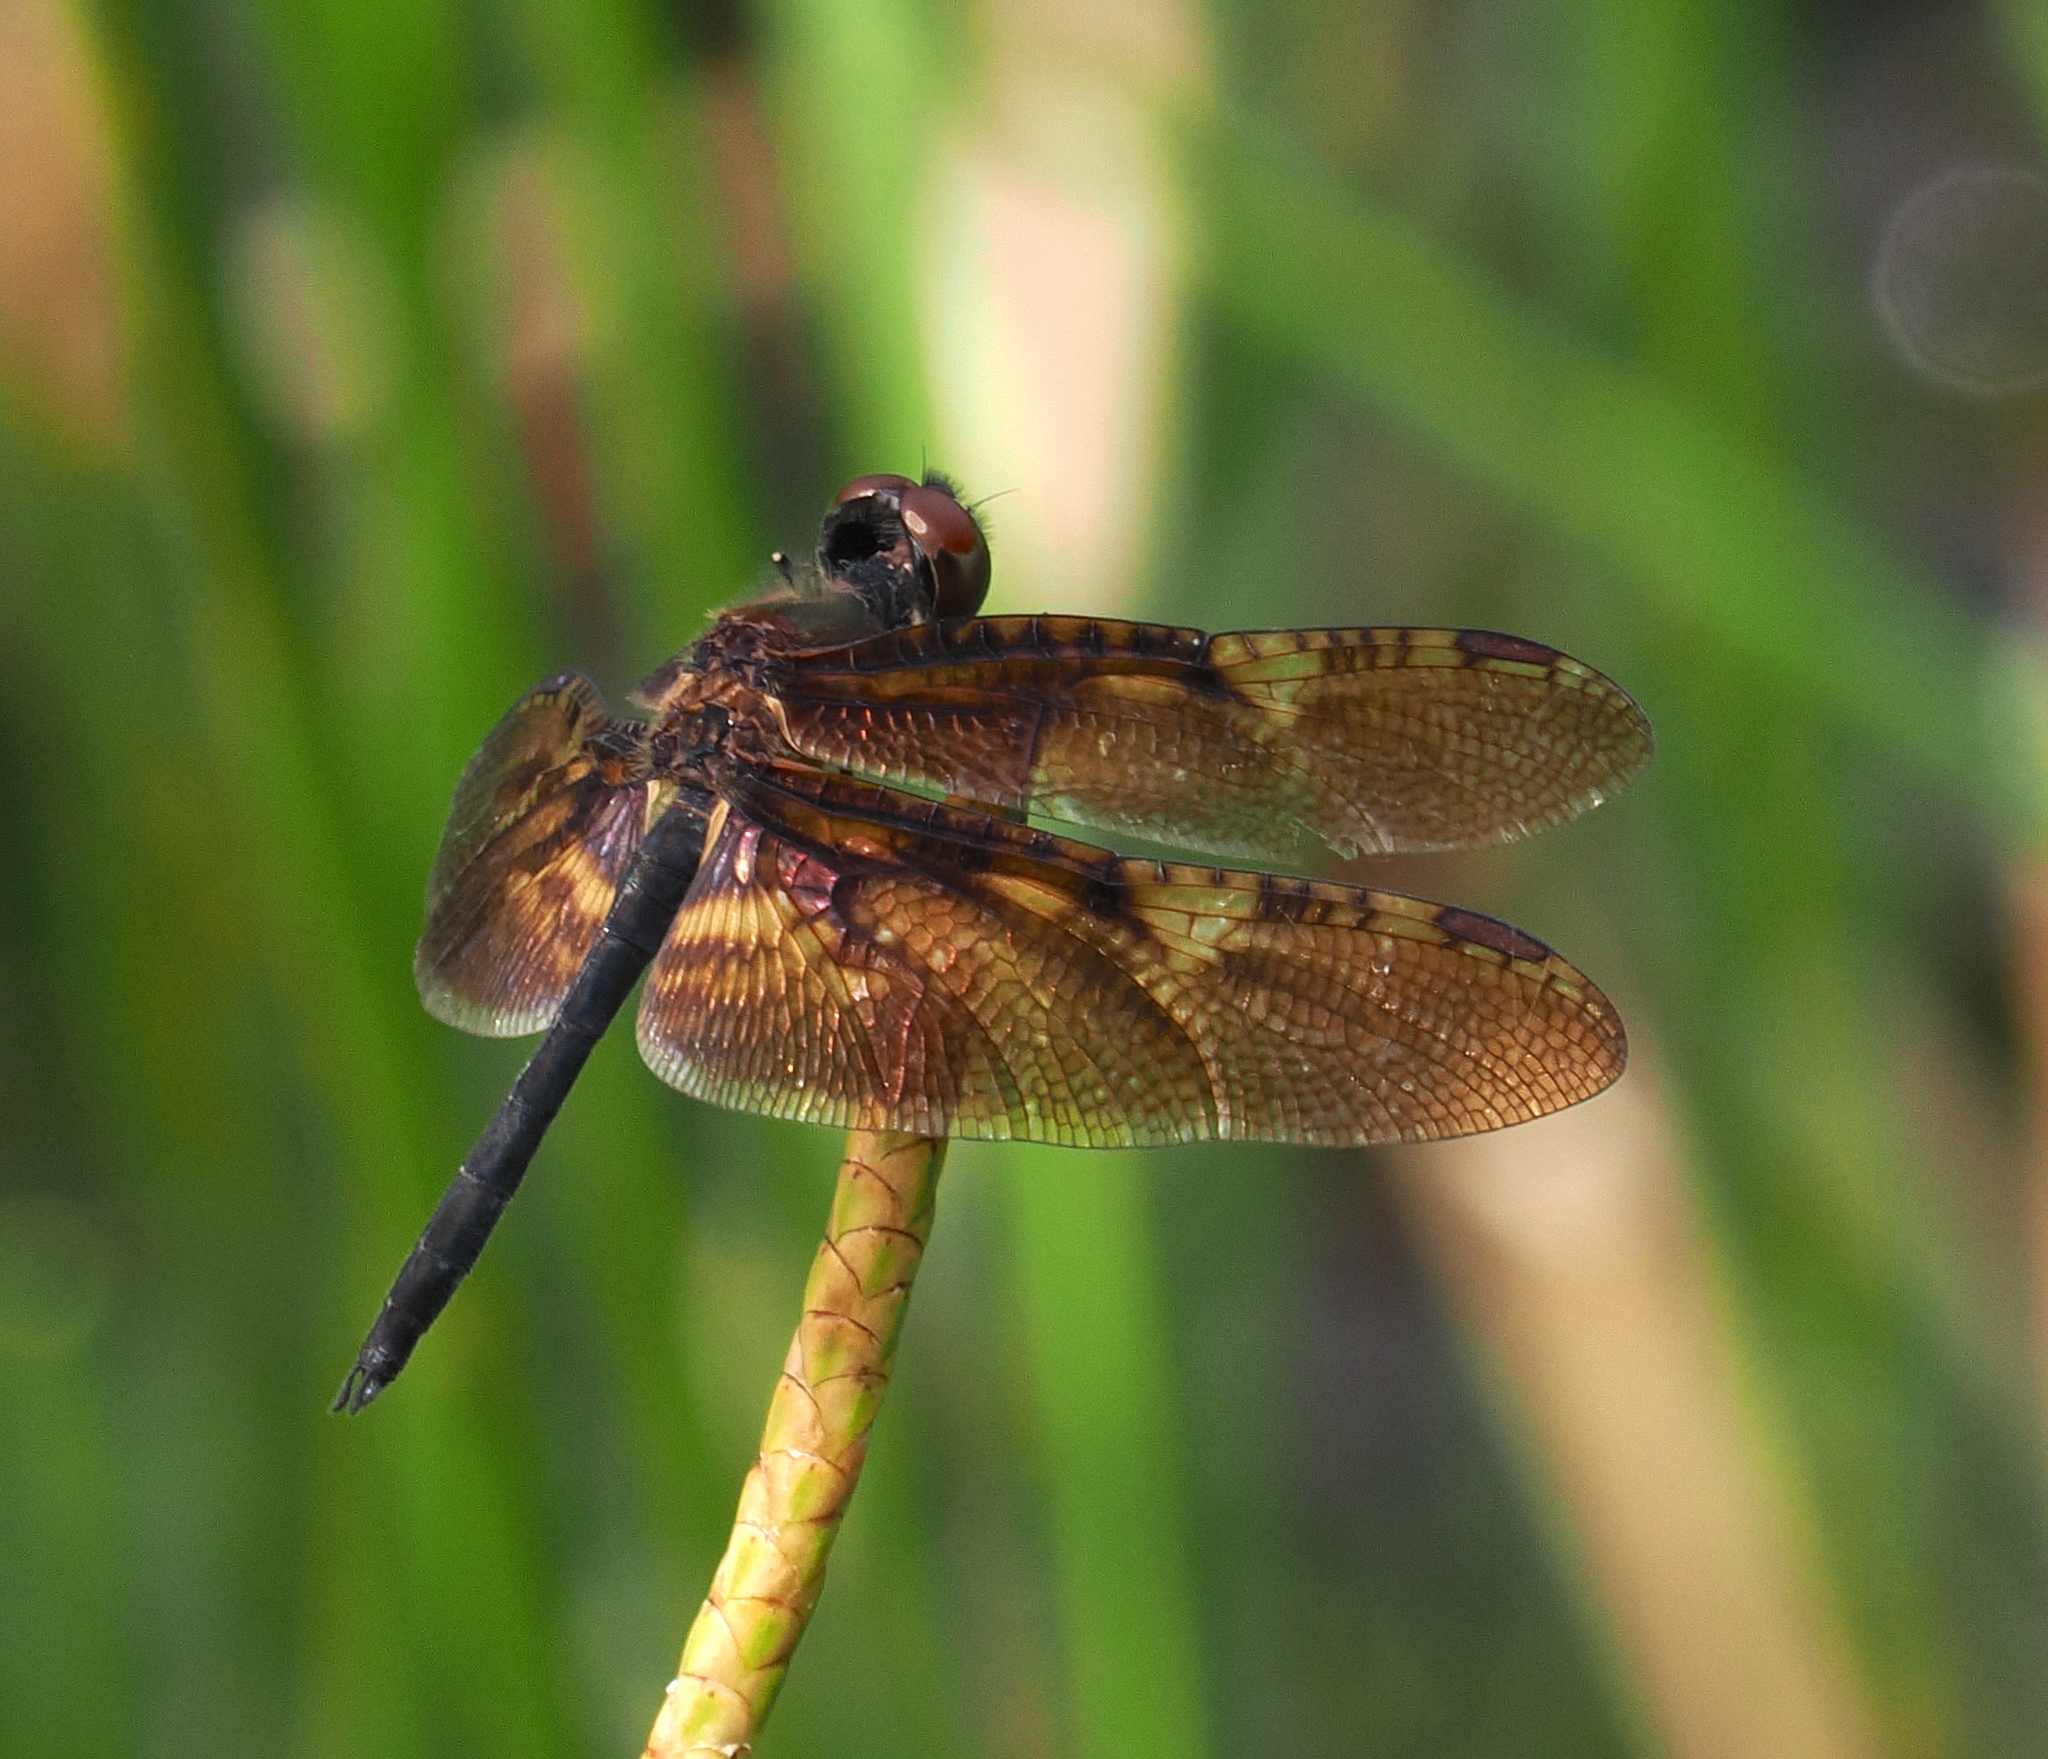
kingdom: Animalia
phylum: Arthropoda
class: Insecta
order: Odonata
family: Libellulidae
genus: Rhyothemis
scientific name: Rhyothemis obsolescens
